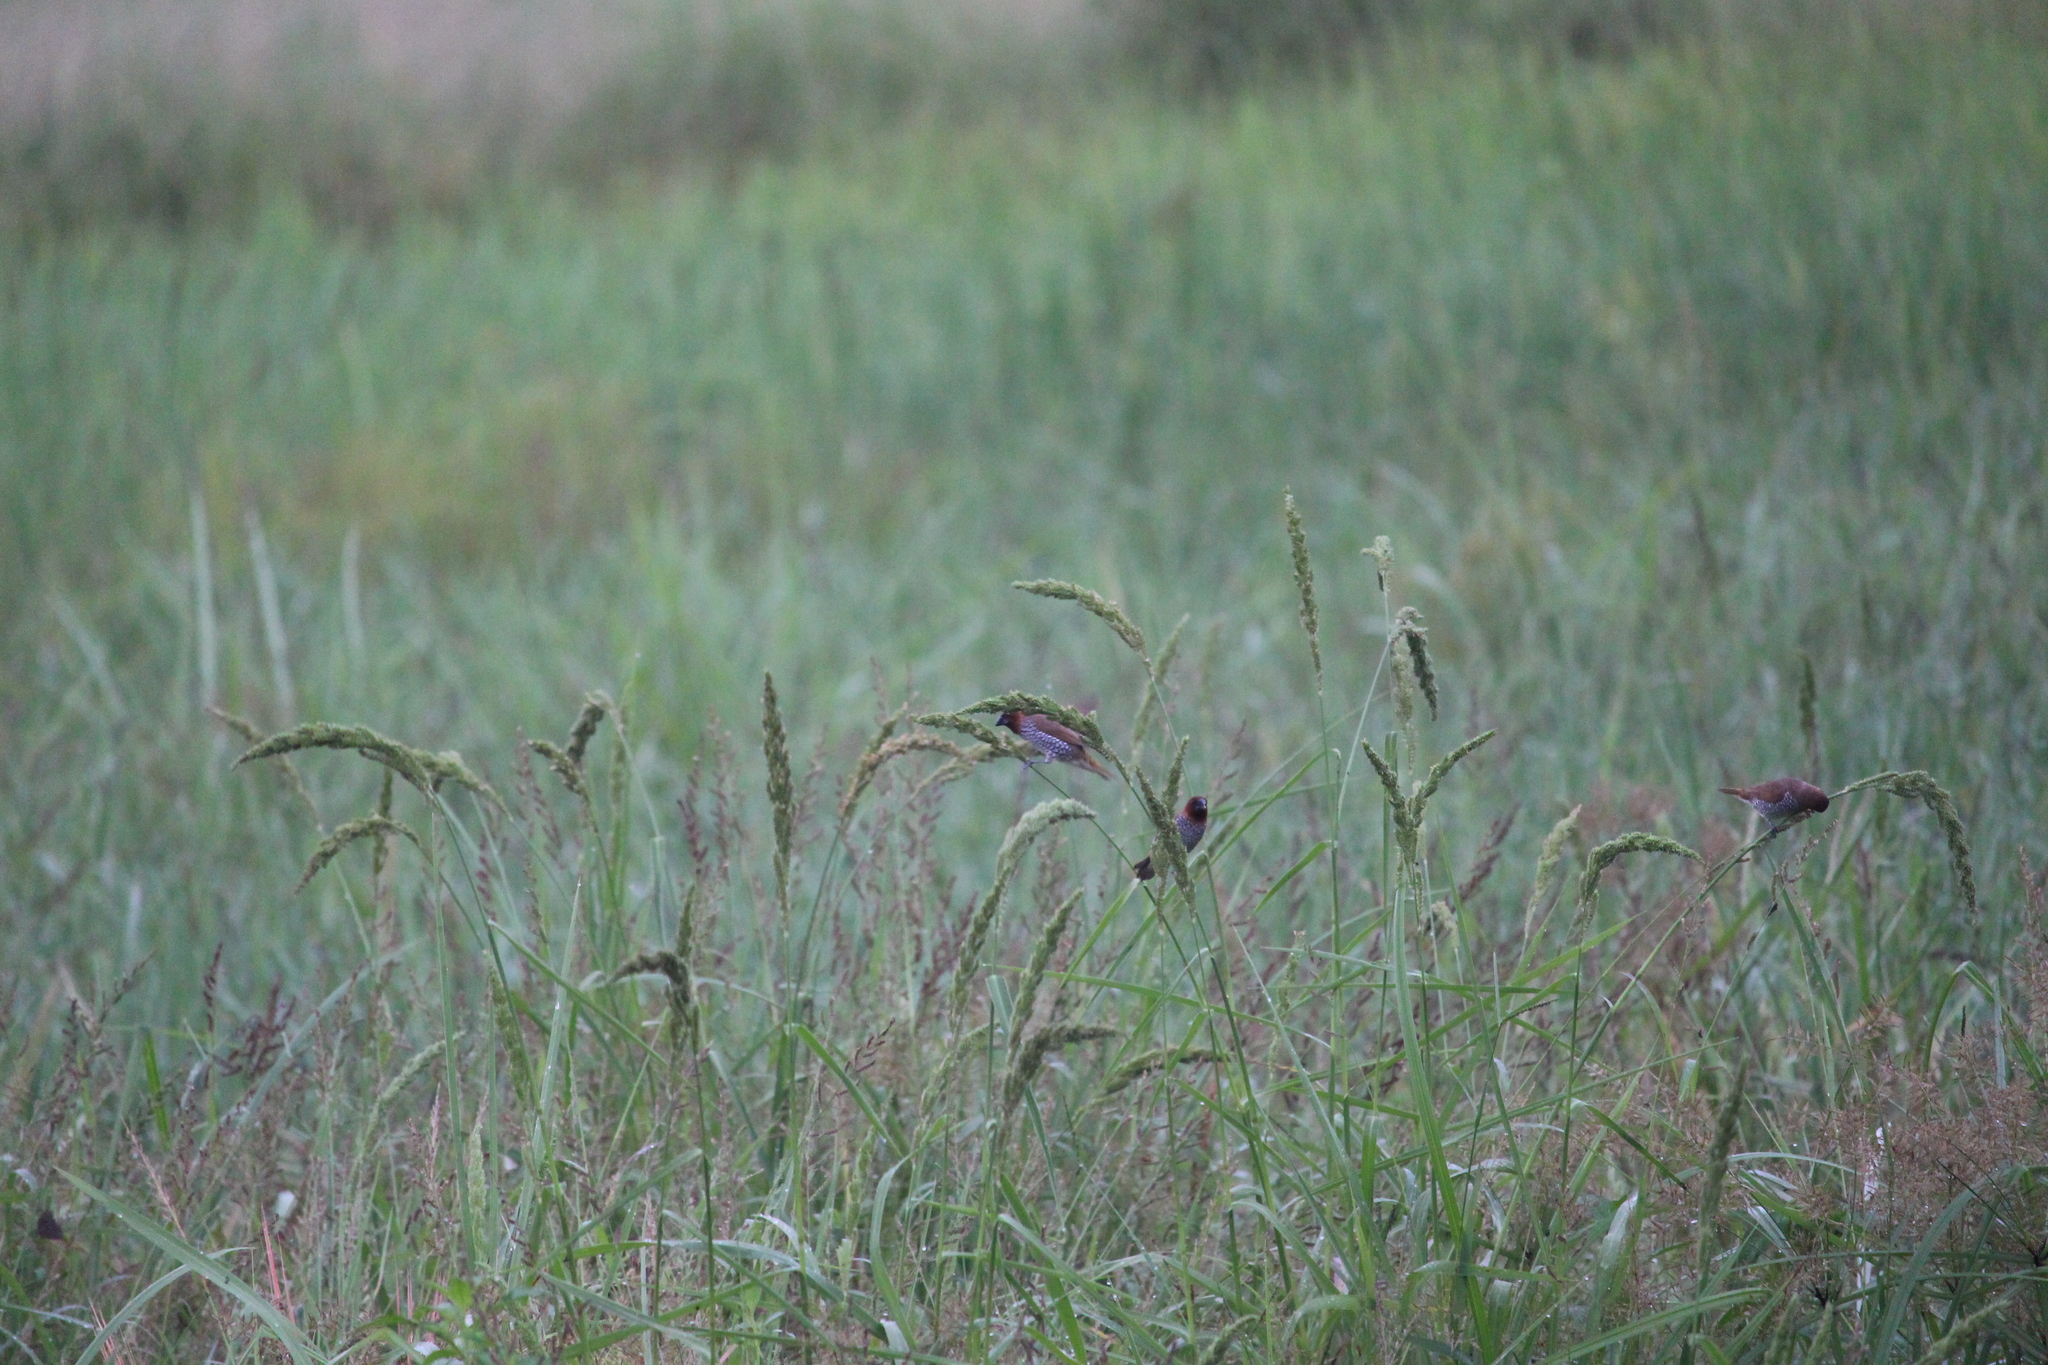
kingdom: Animalia
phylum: Chordata
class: Aves
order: Passeriformes
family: Estrildidae
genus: Lonchura
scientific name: Lonchura punctulata
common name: Scaly-breasted munia
